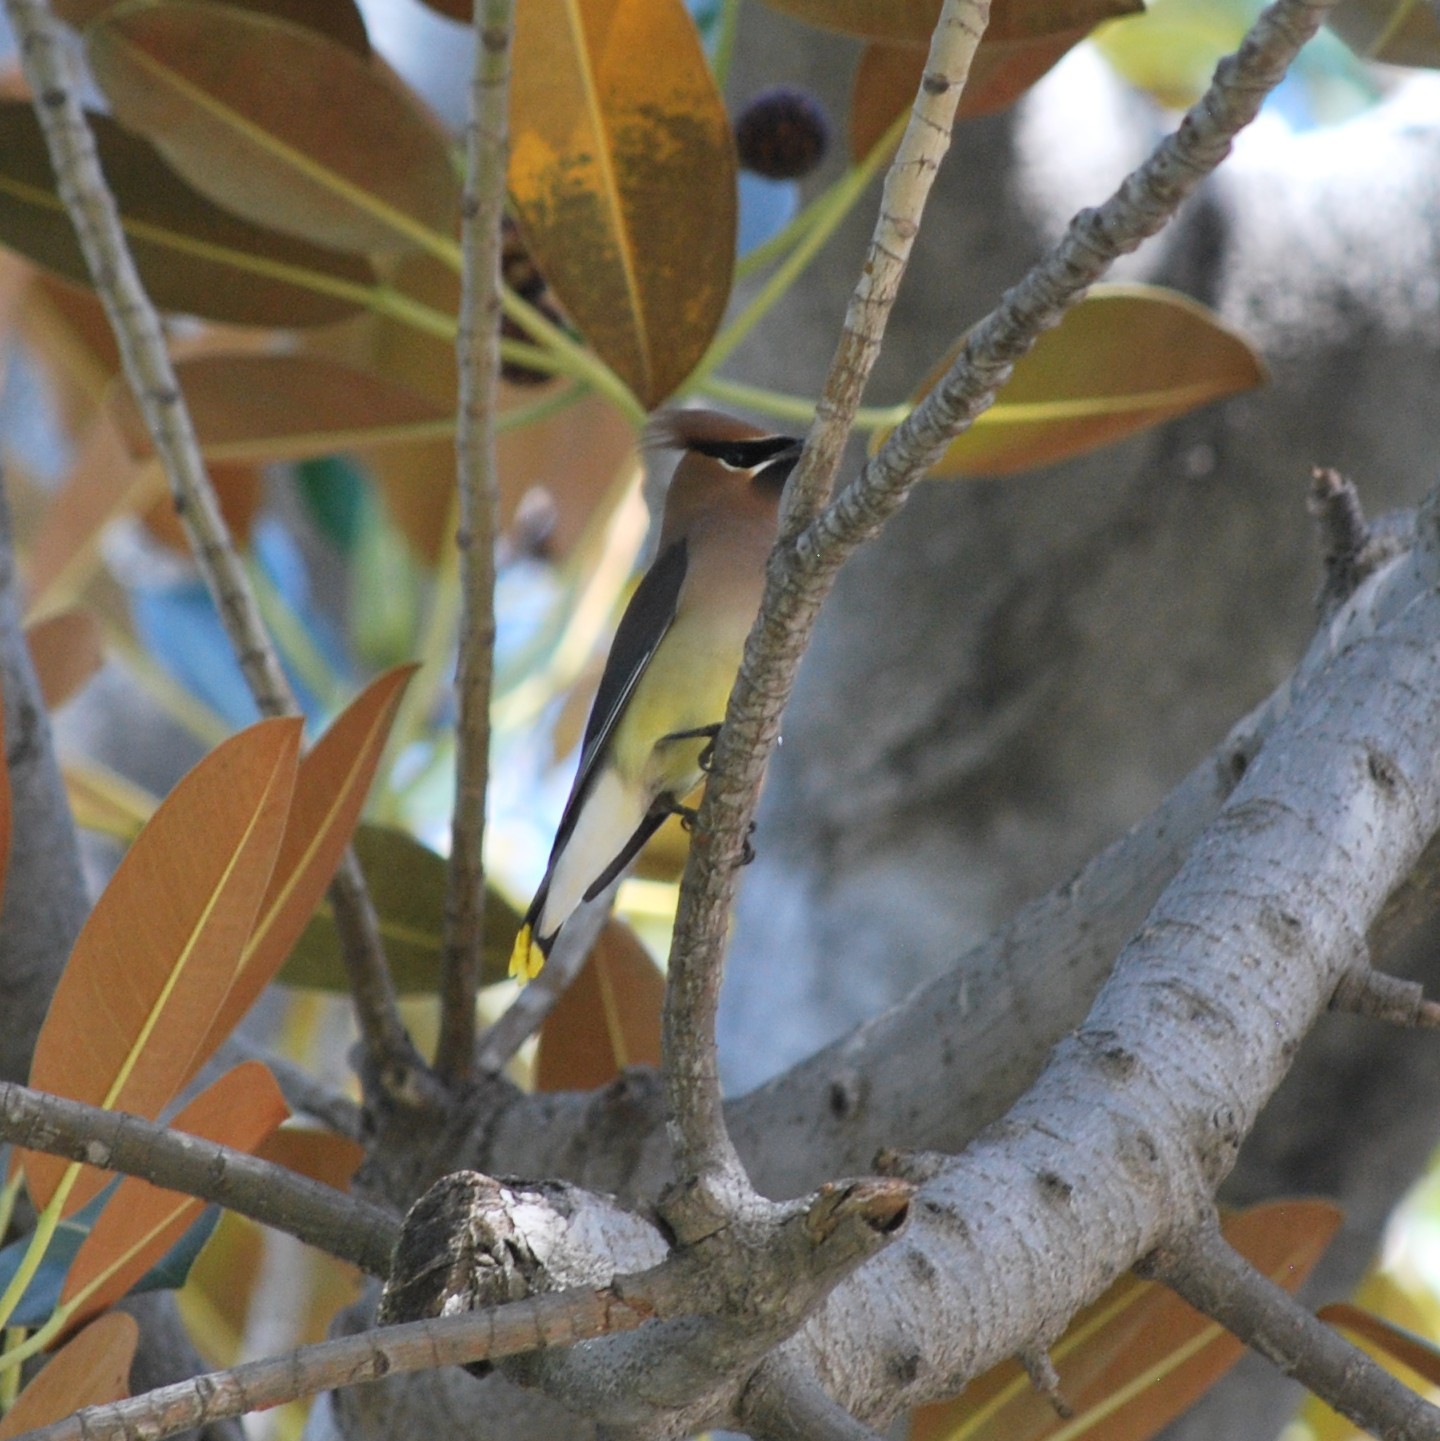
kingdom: Animalia
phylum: Chordata
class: Aves
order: Passeriformes
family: Bombycillidae
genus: Bombycilla
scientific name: Bombycilla cedrorum
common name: Cedar waxwing
